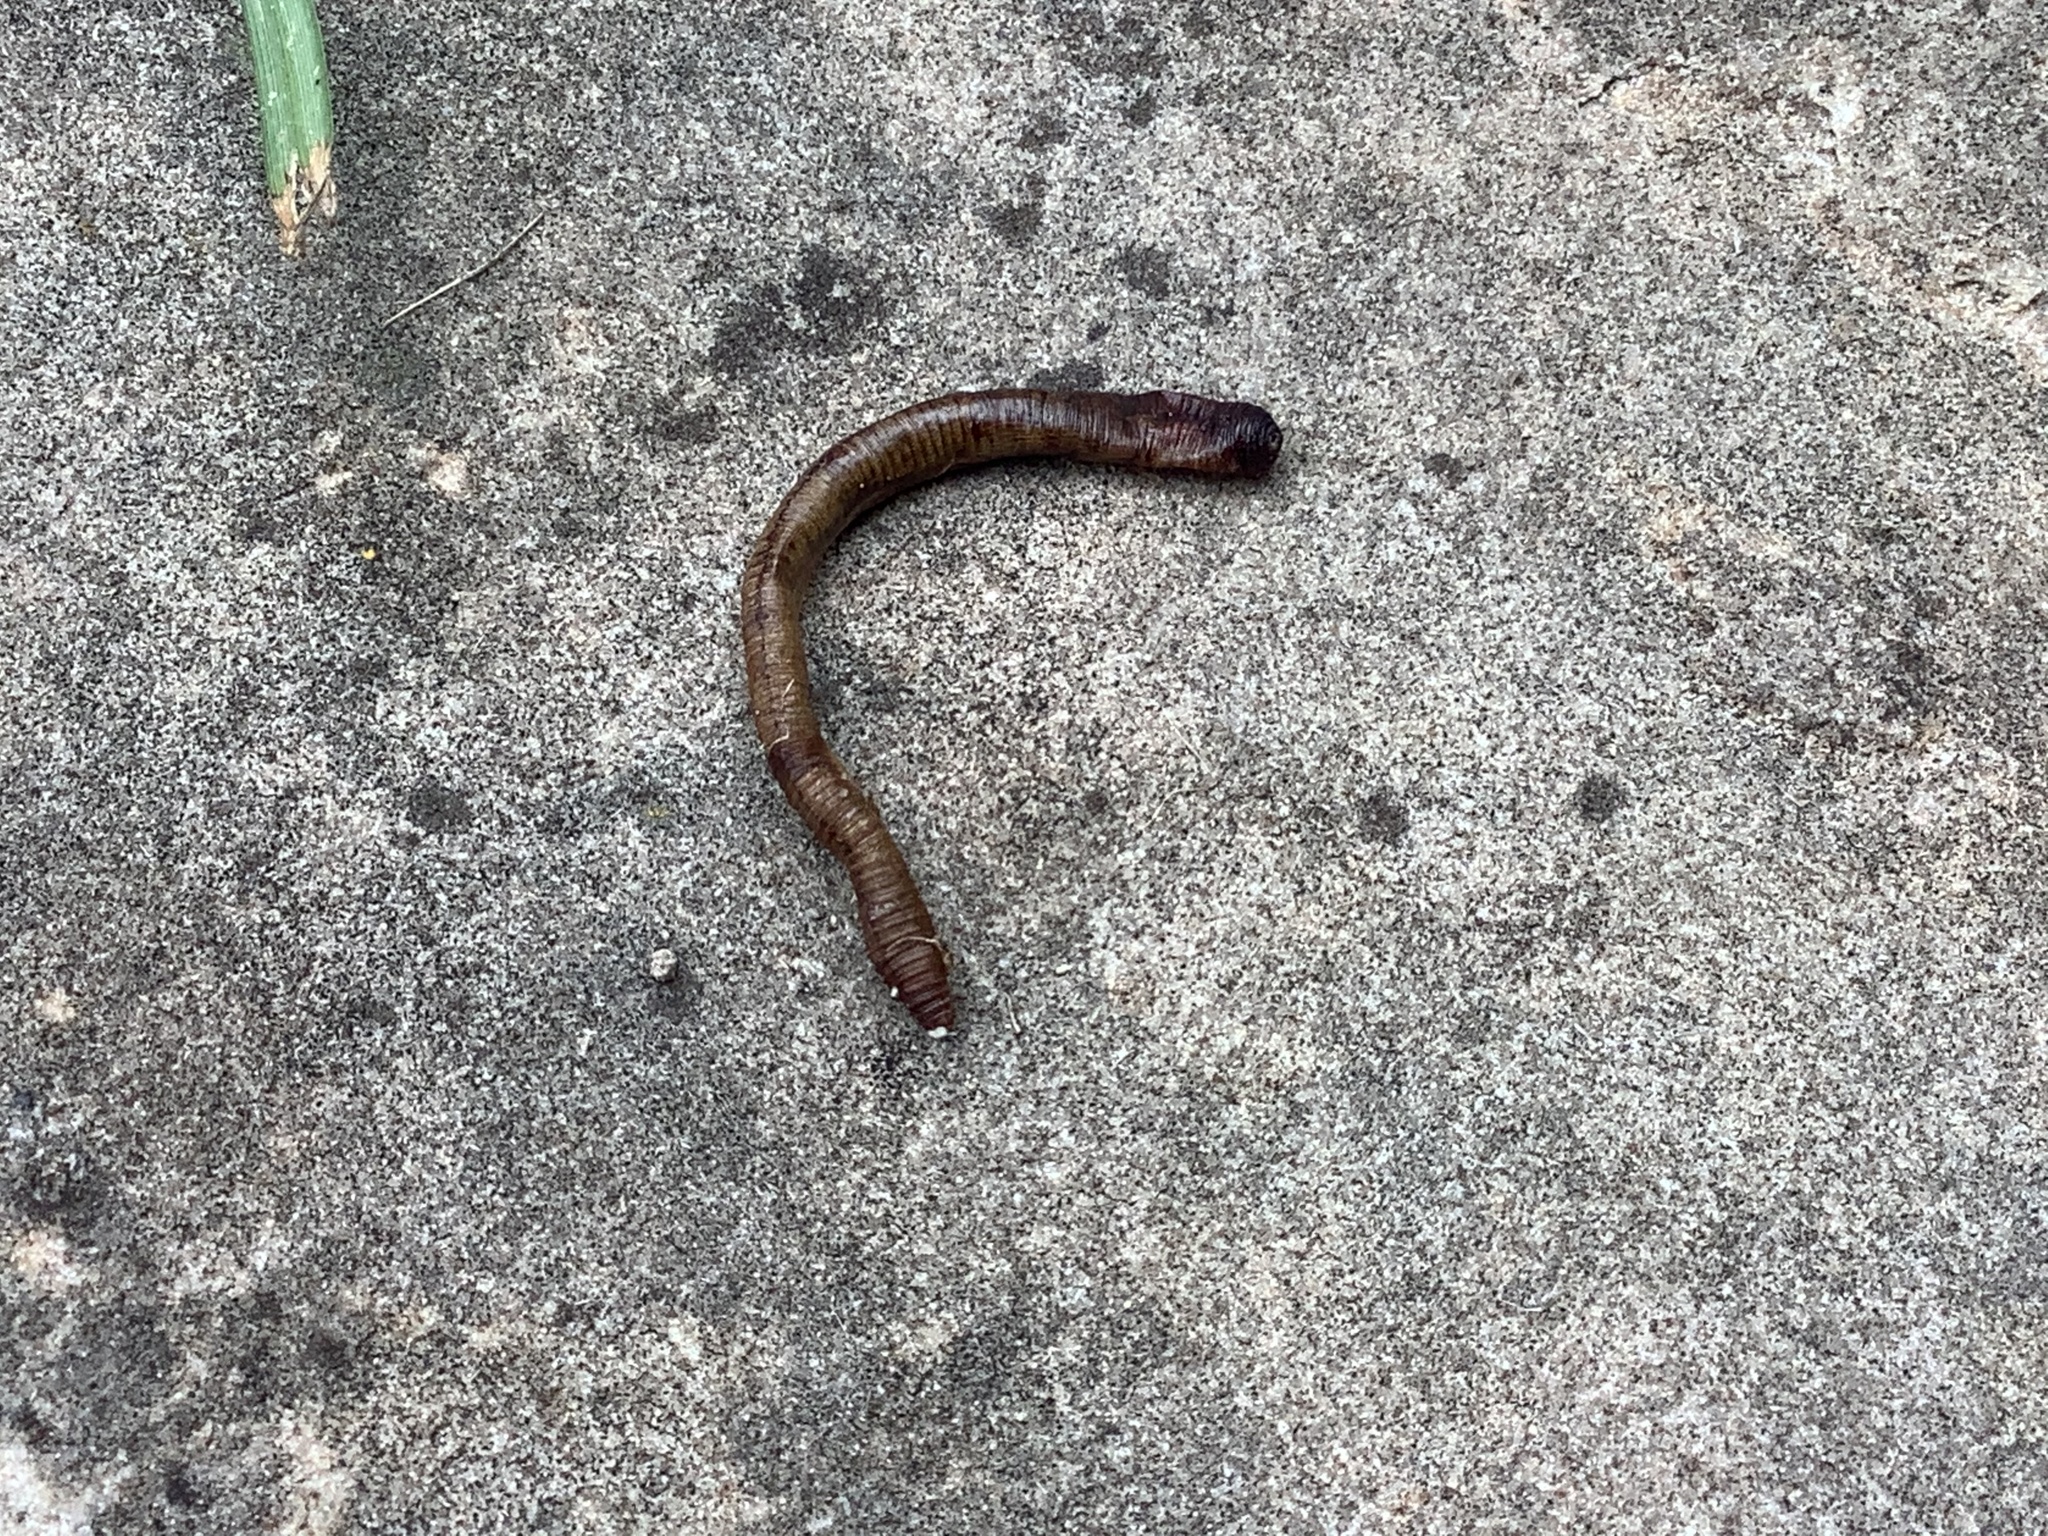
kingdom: Animalia
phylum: Annelida
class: Clitellata
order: Crassiclitellata
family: Lumbricidae
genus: Lumbricus
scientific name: Lumbricus terrestris
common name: Common earthworm
